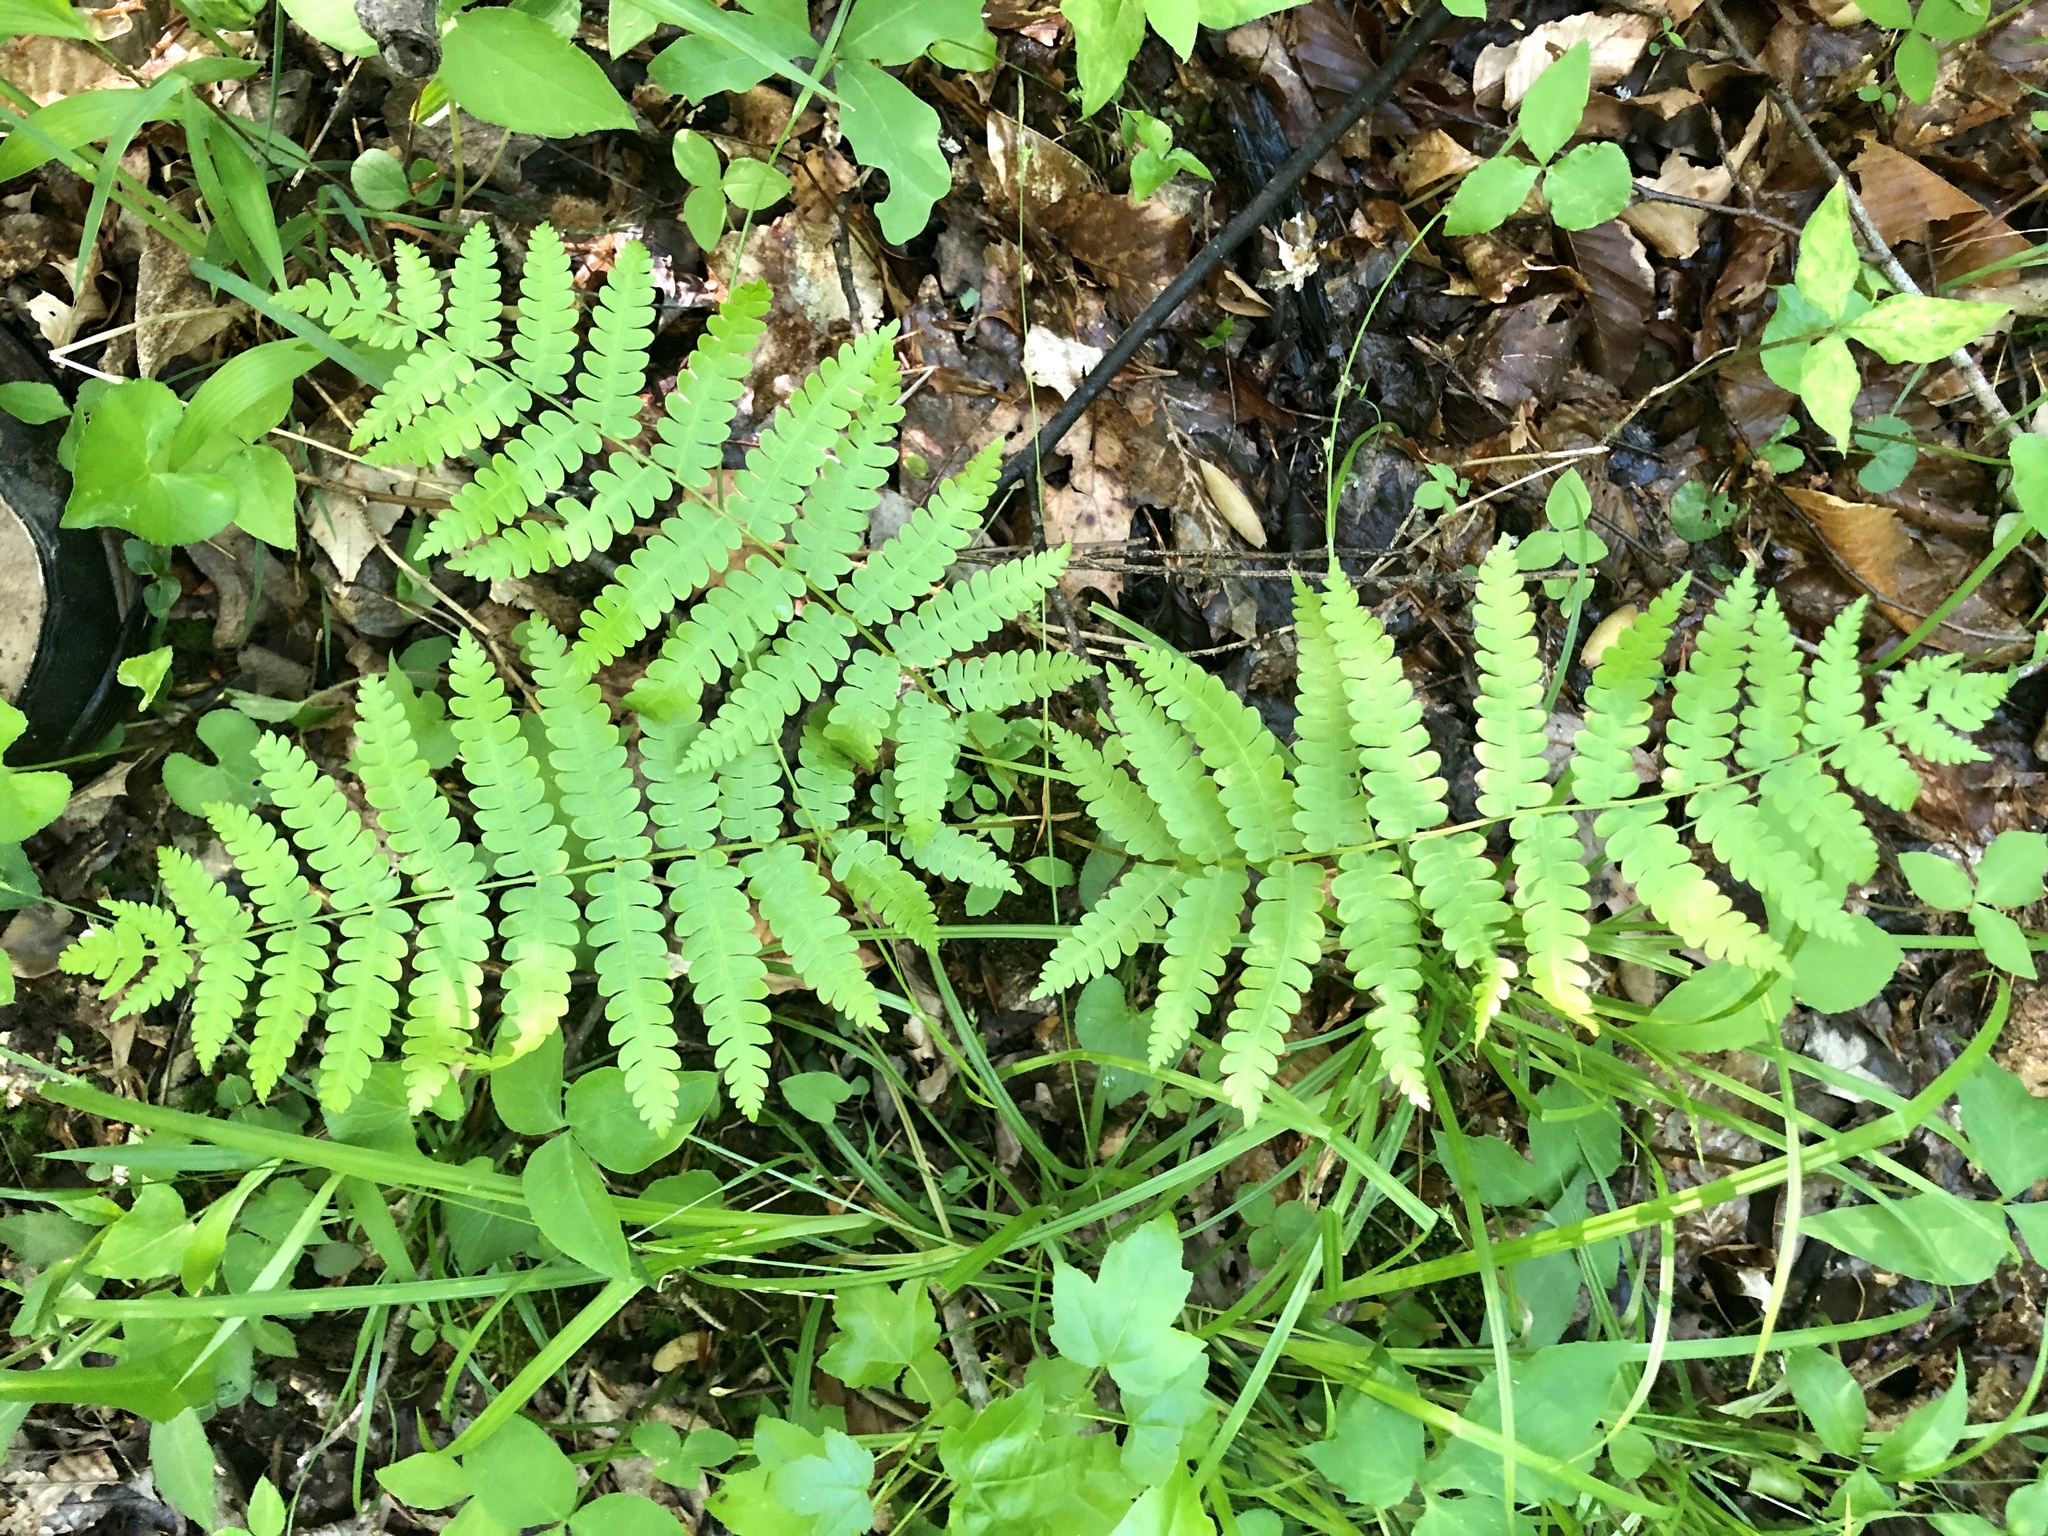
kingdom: Plantae
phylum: Tracheophyta
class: Polypodiopsida
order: Polypodiales
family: Thelypteridaceae
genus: Phegopteris
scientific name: Phegopteris hexagonoptera
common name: Broad beech fern
